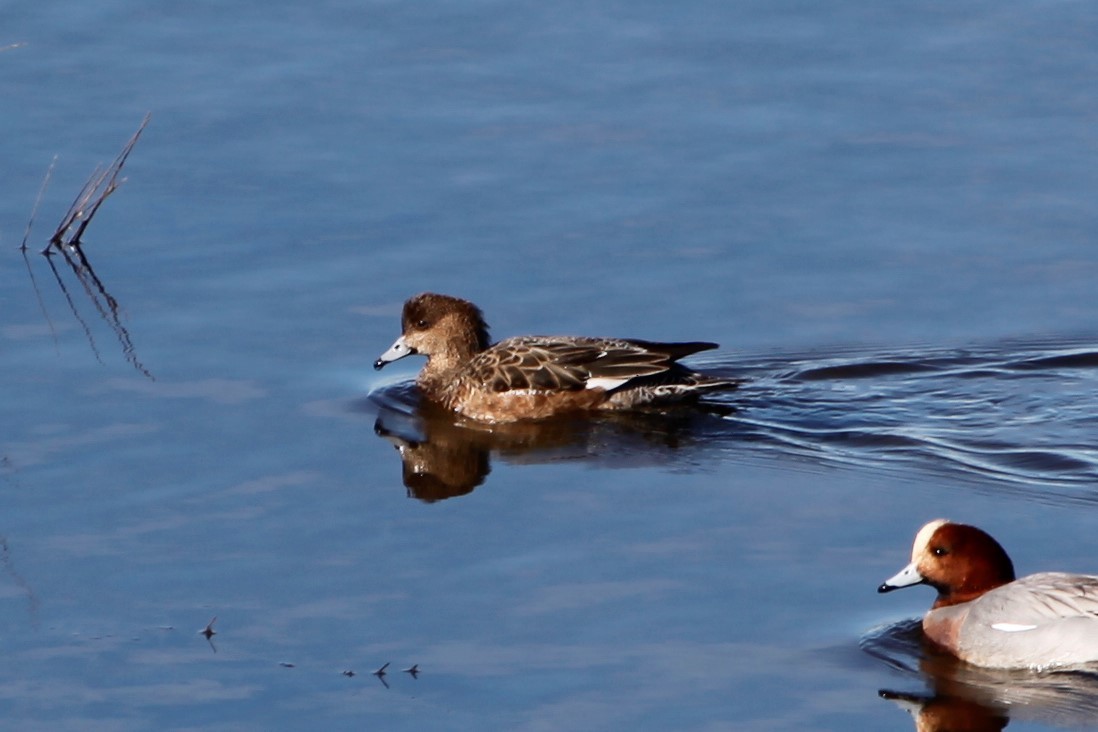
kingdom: Animalia
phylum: Chordata
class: Aves
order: Anseriformes
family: Anatidae
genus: Mareca
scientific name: Mareca penelope
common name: Eurasian wigeon
